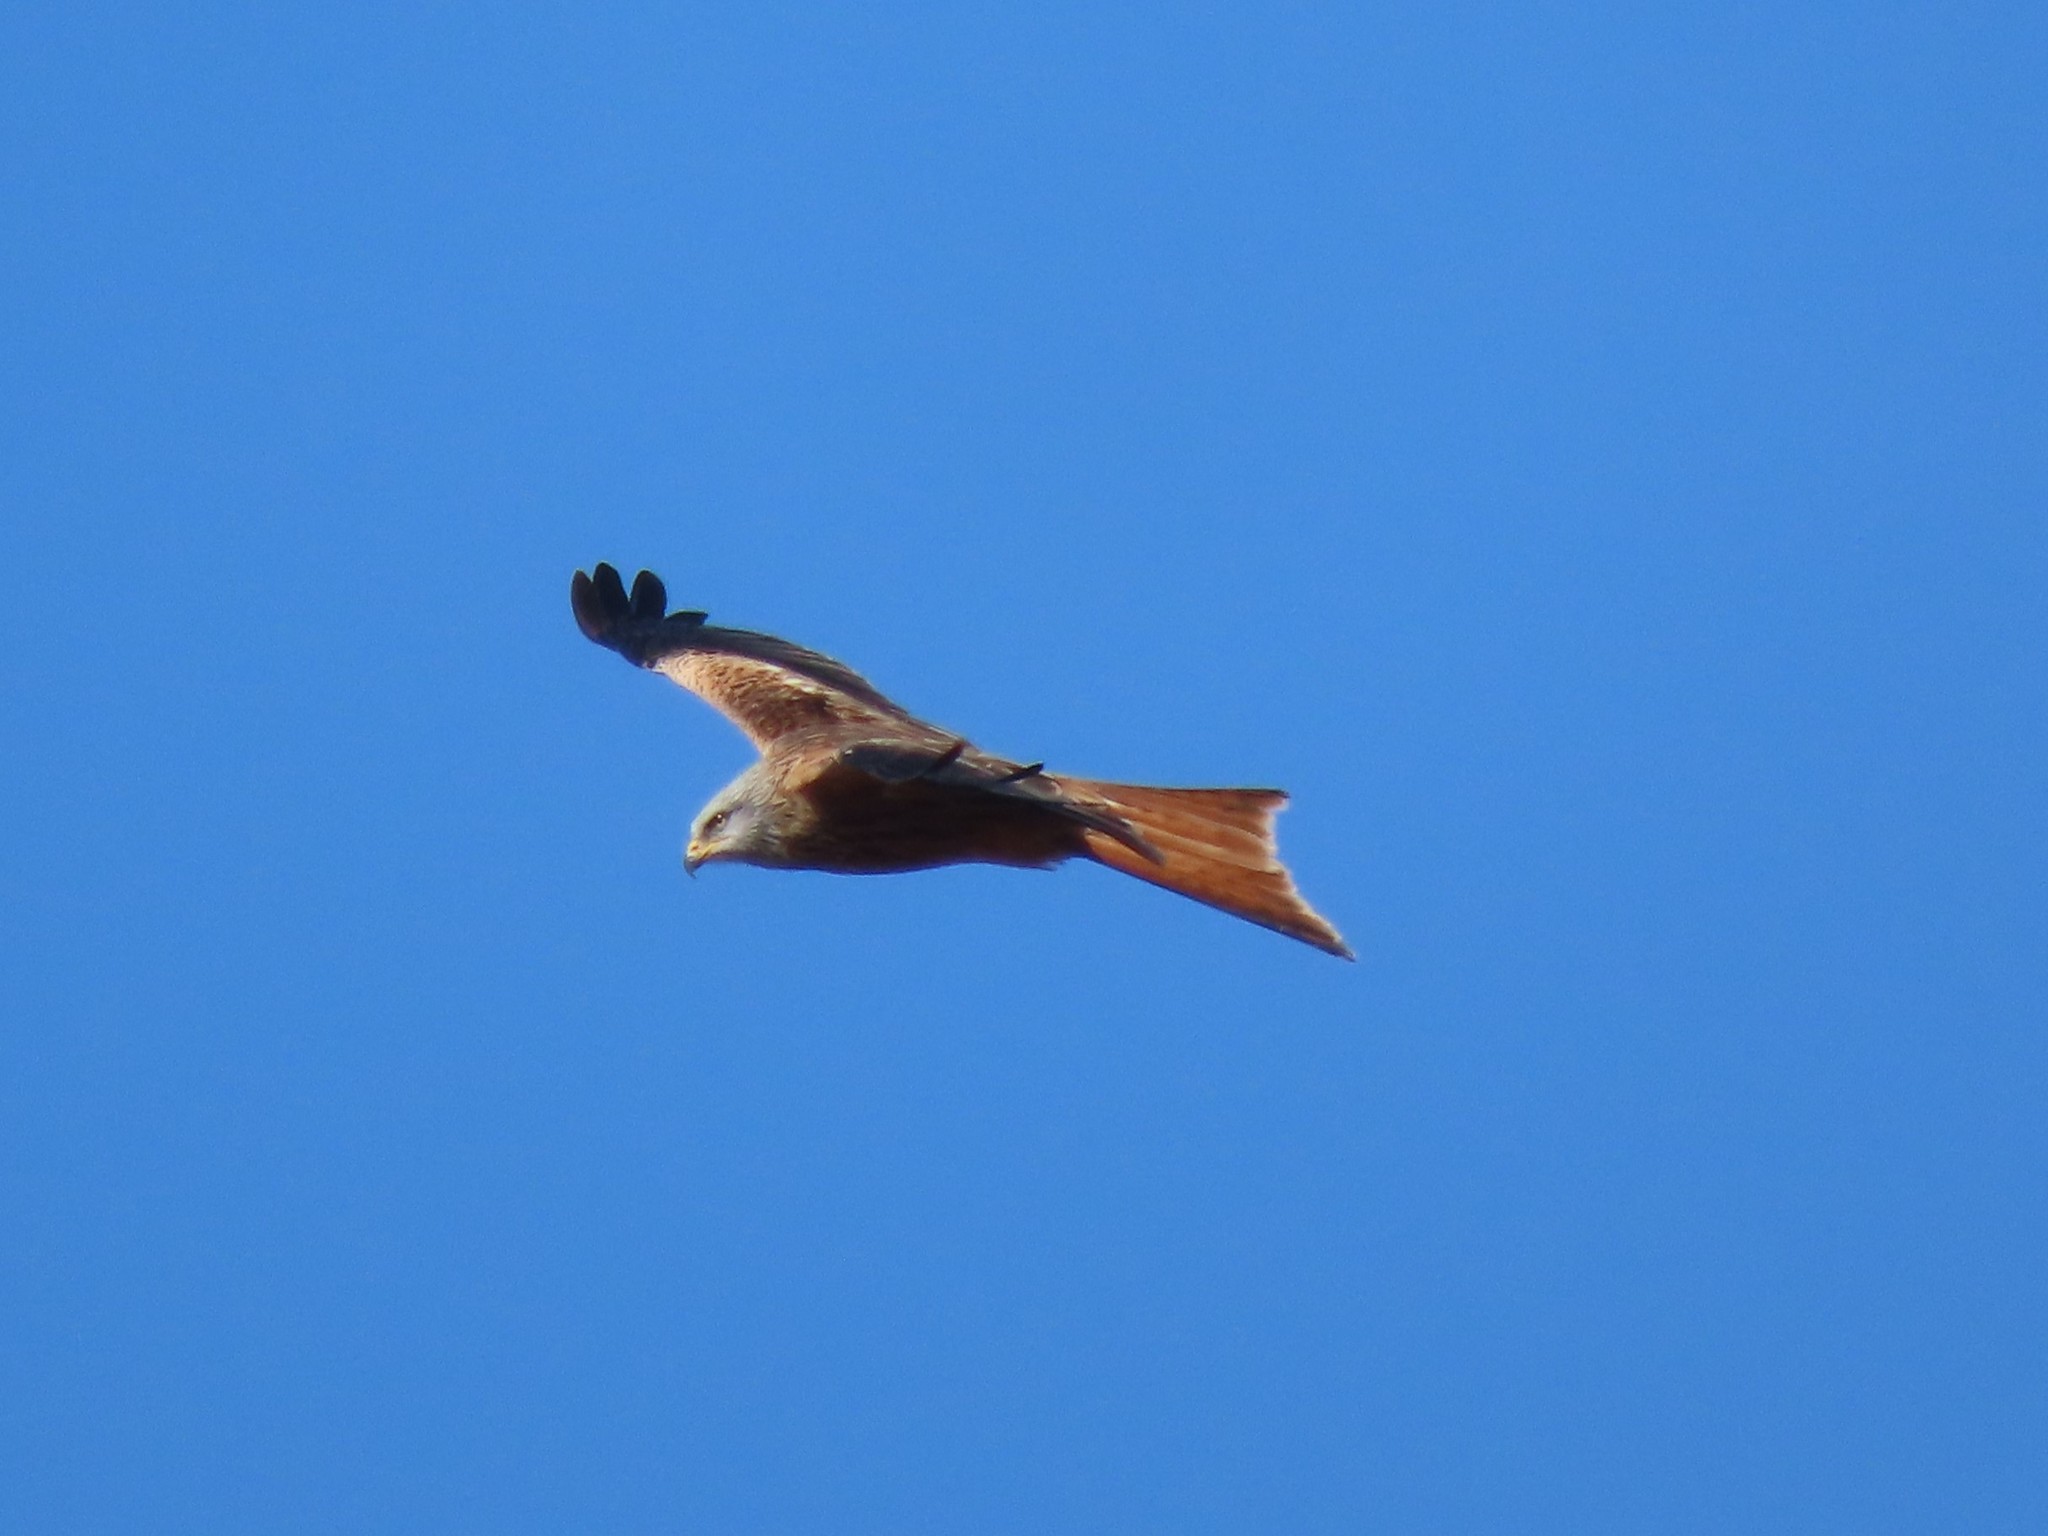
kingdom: Animalia
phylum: Chordata
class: Aves
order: Accipitriformes
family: Accipitridae
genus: Milvus
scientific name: Milvus milvus
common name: Red kite
